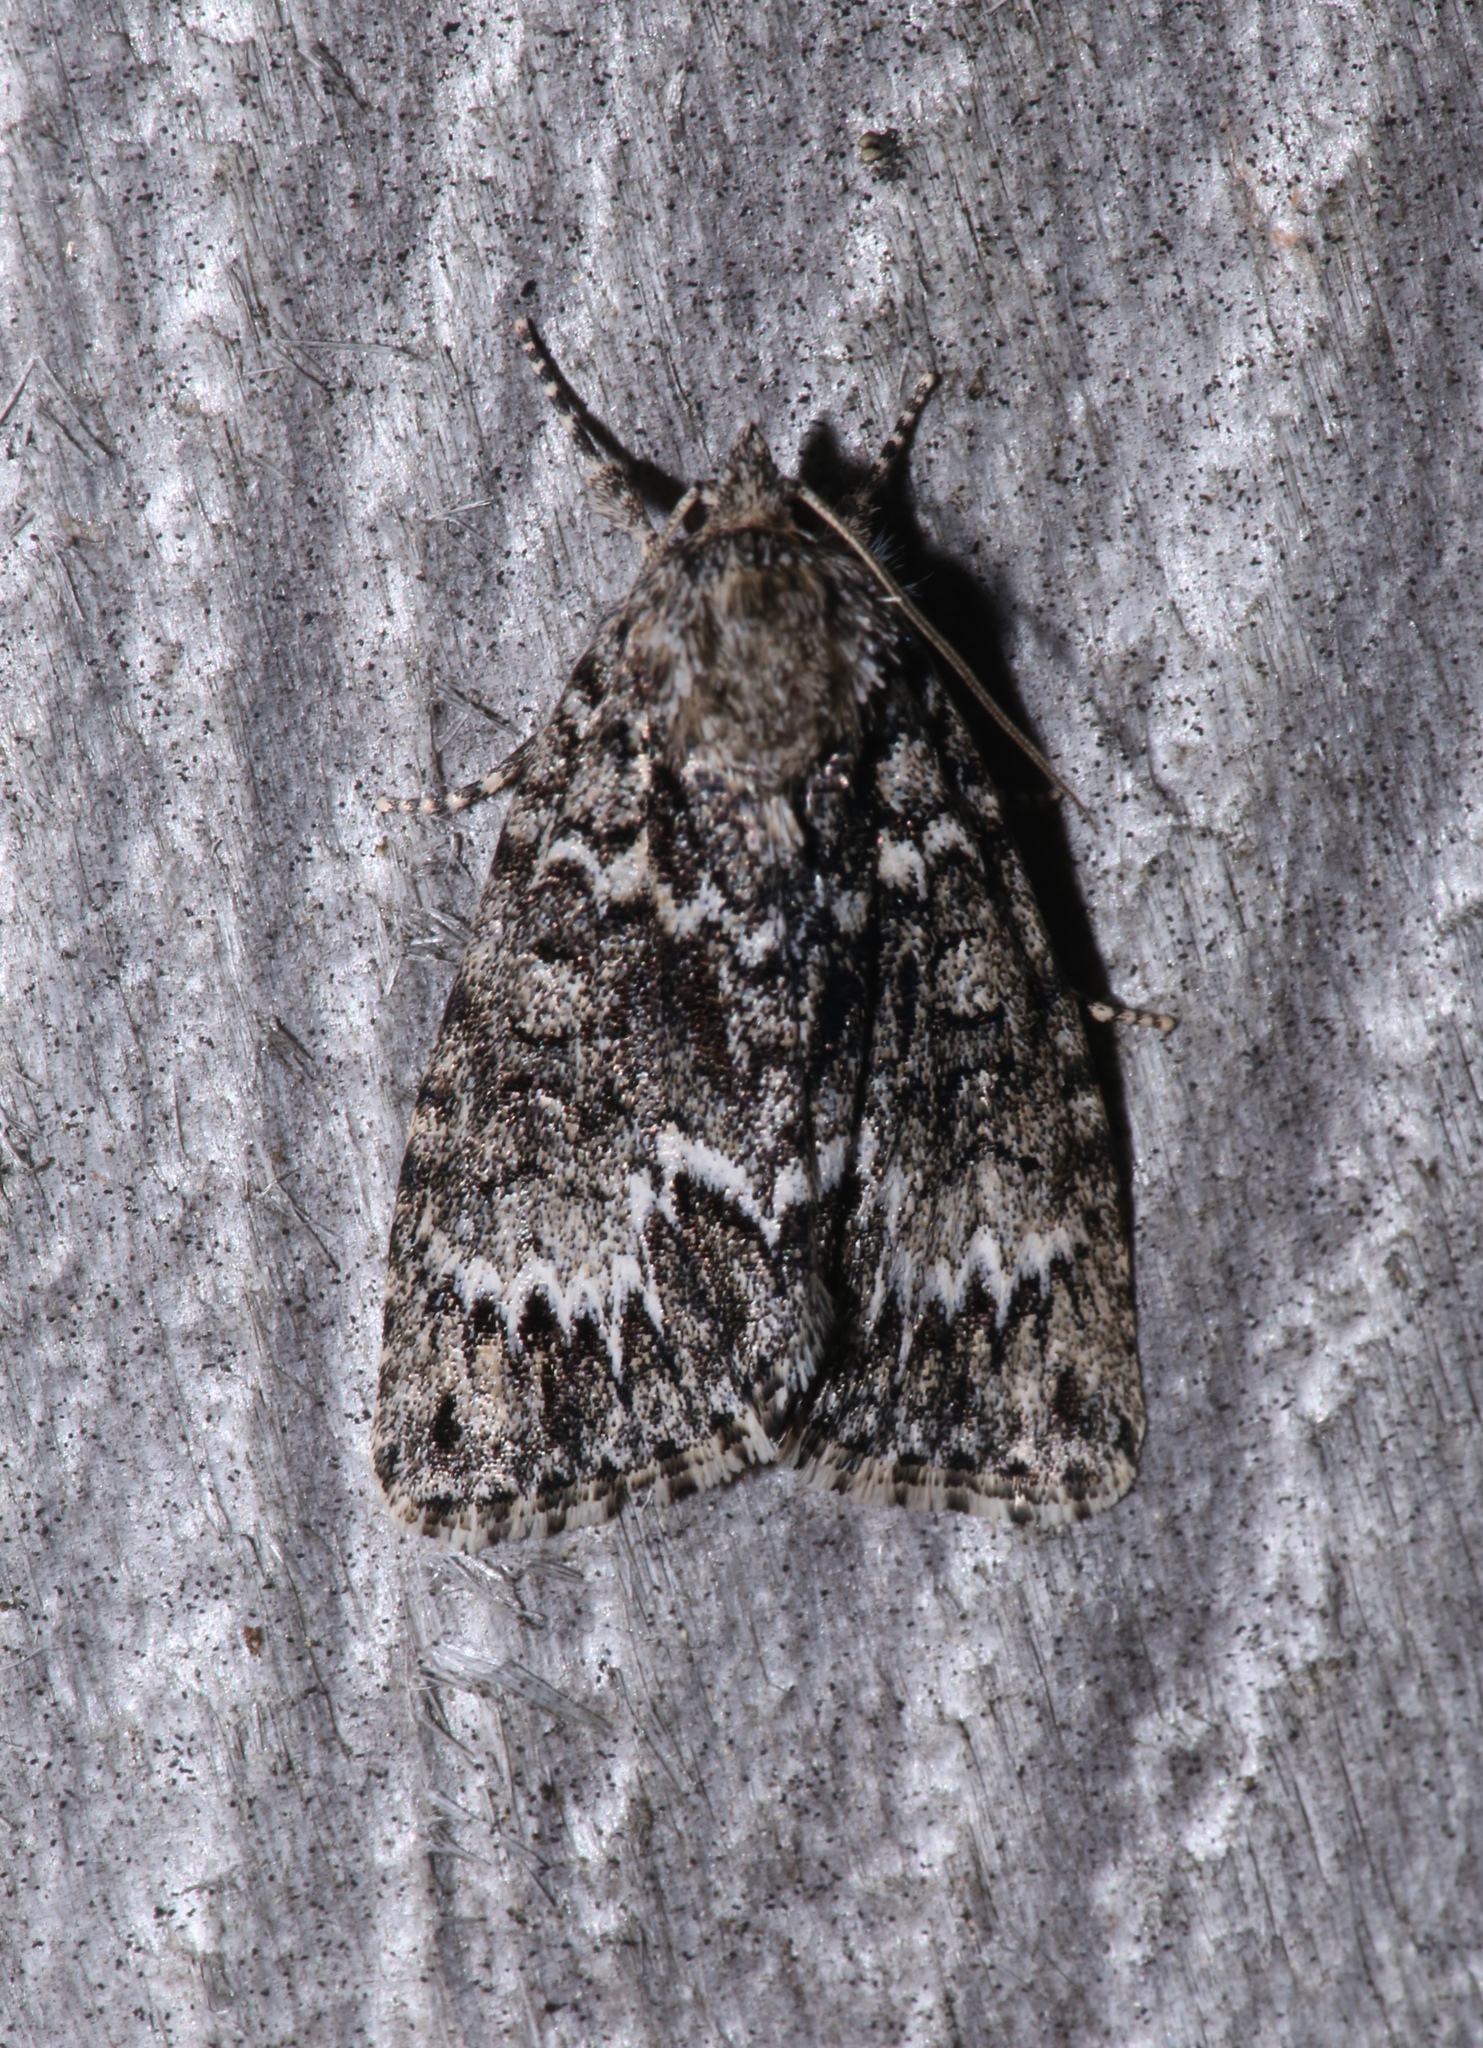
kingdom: Animalia
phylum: Arthropoda
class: Insecta
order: Lepidoptera
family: Noctuidae
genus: Acronicta
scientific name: Acronicta fragilis
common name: Fragile dagger
